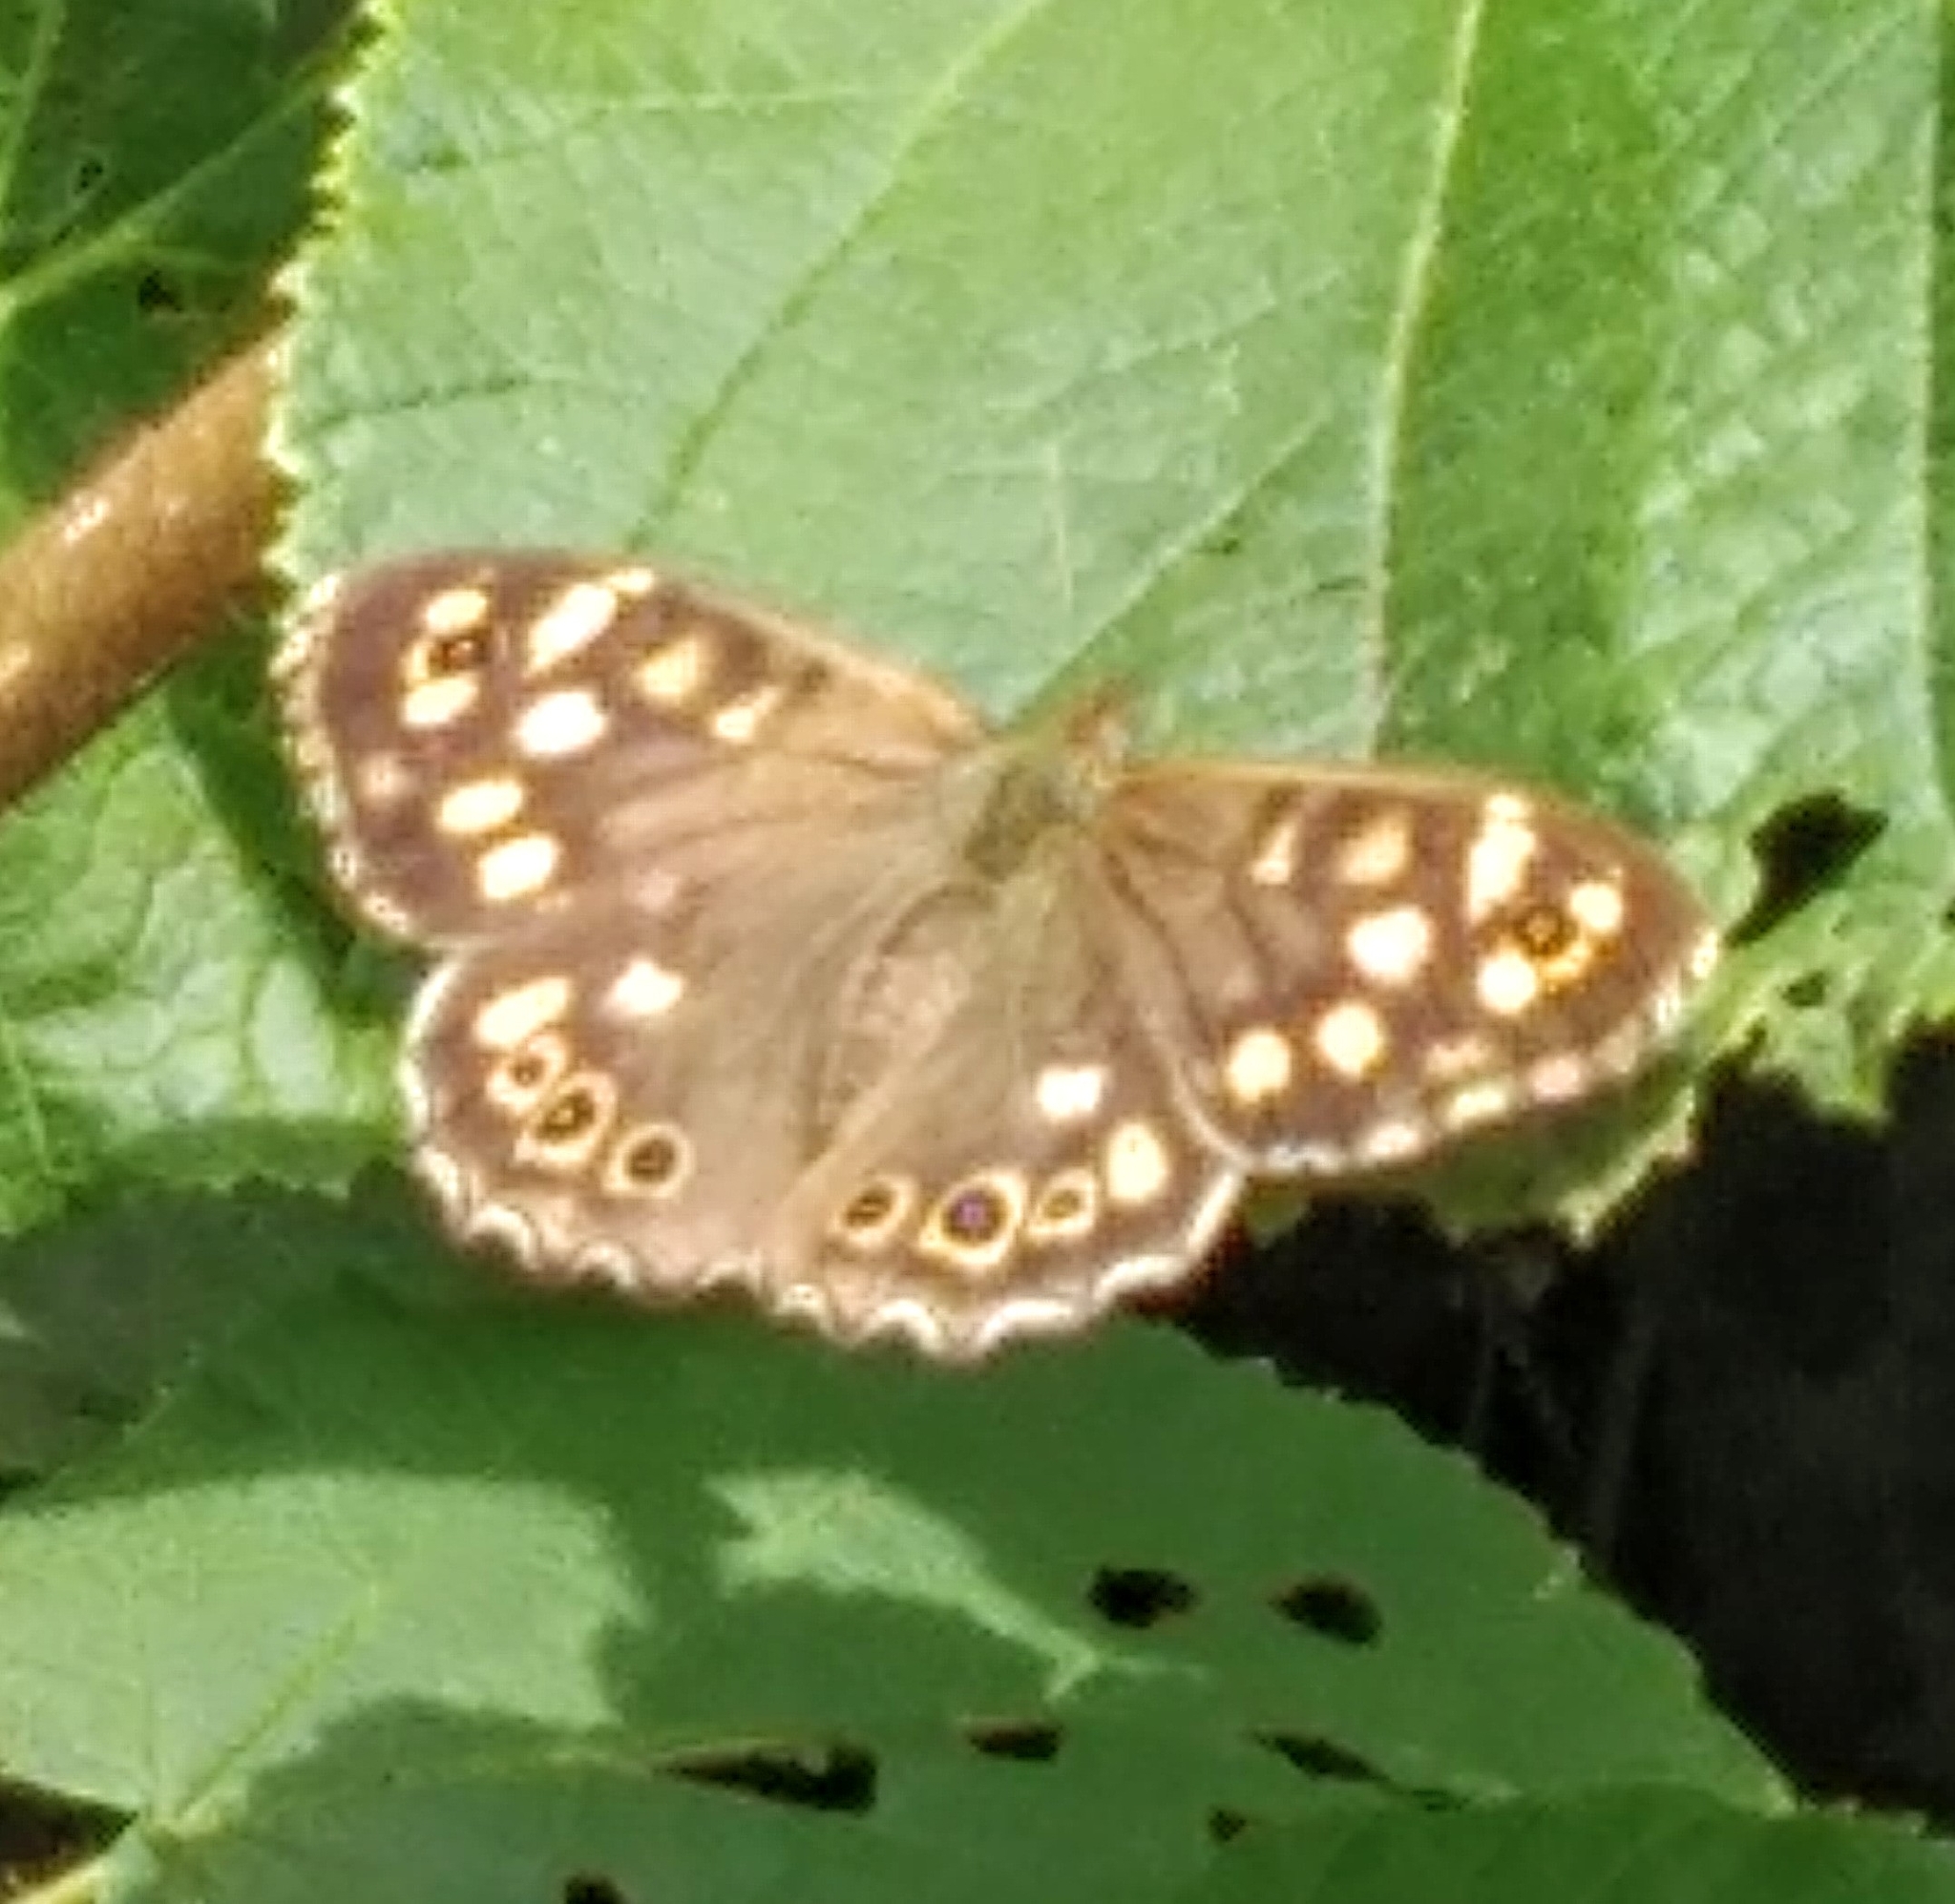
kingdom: Animalia
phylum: Arthropoda
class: Insecta
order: Lepidoptera
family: Nymphalidae
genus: Pararge
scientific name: Pararge aegeria
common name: Speckled wood
